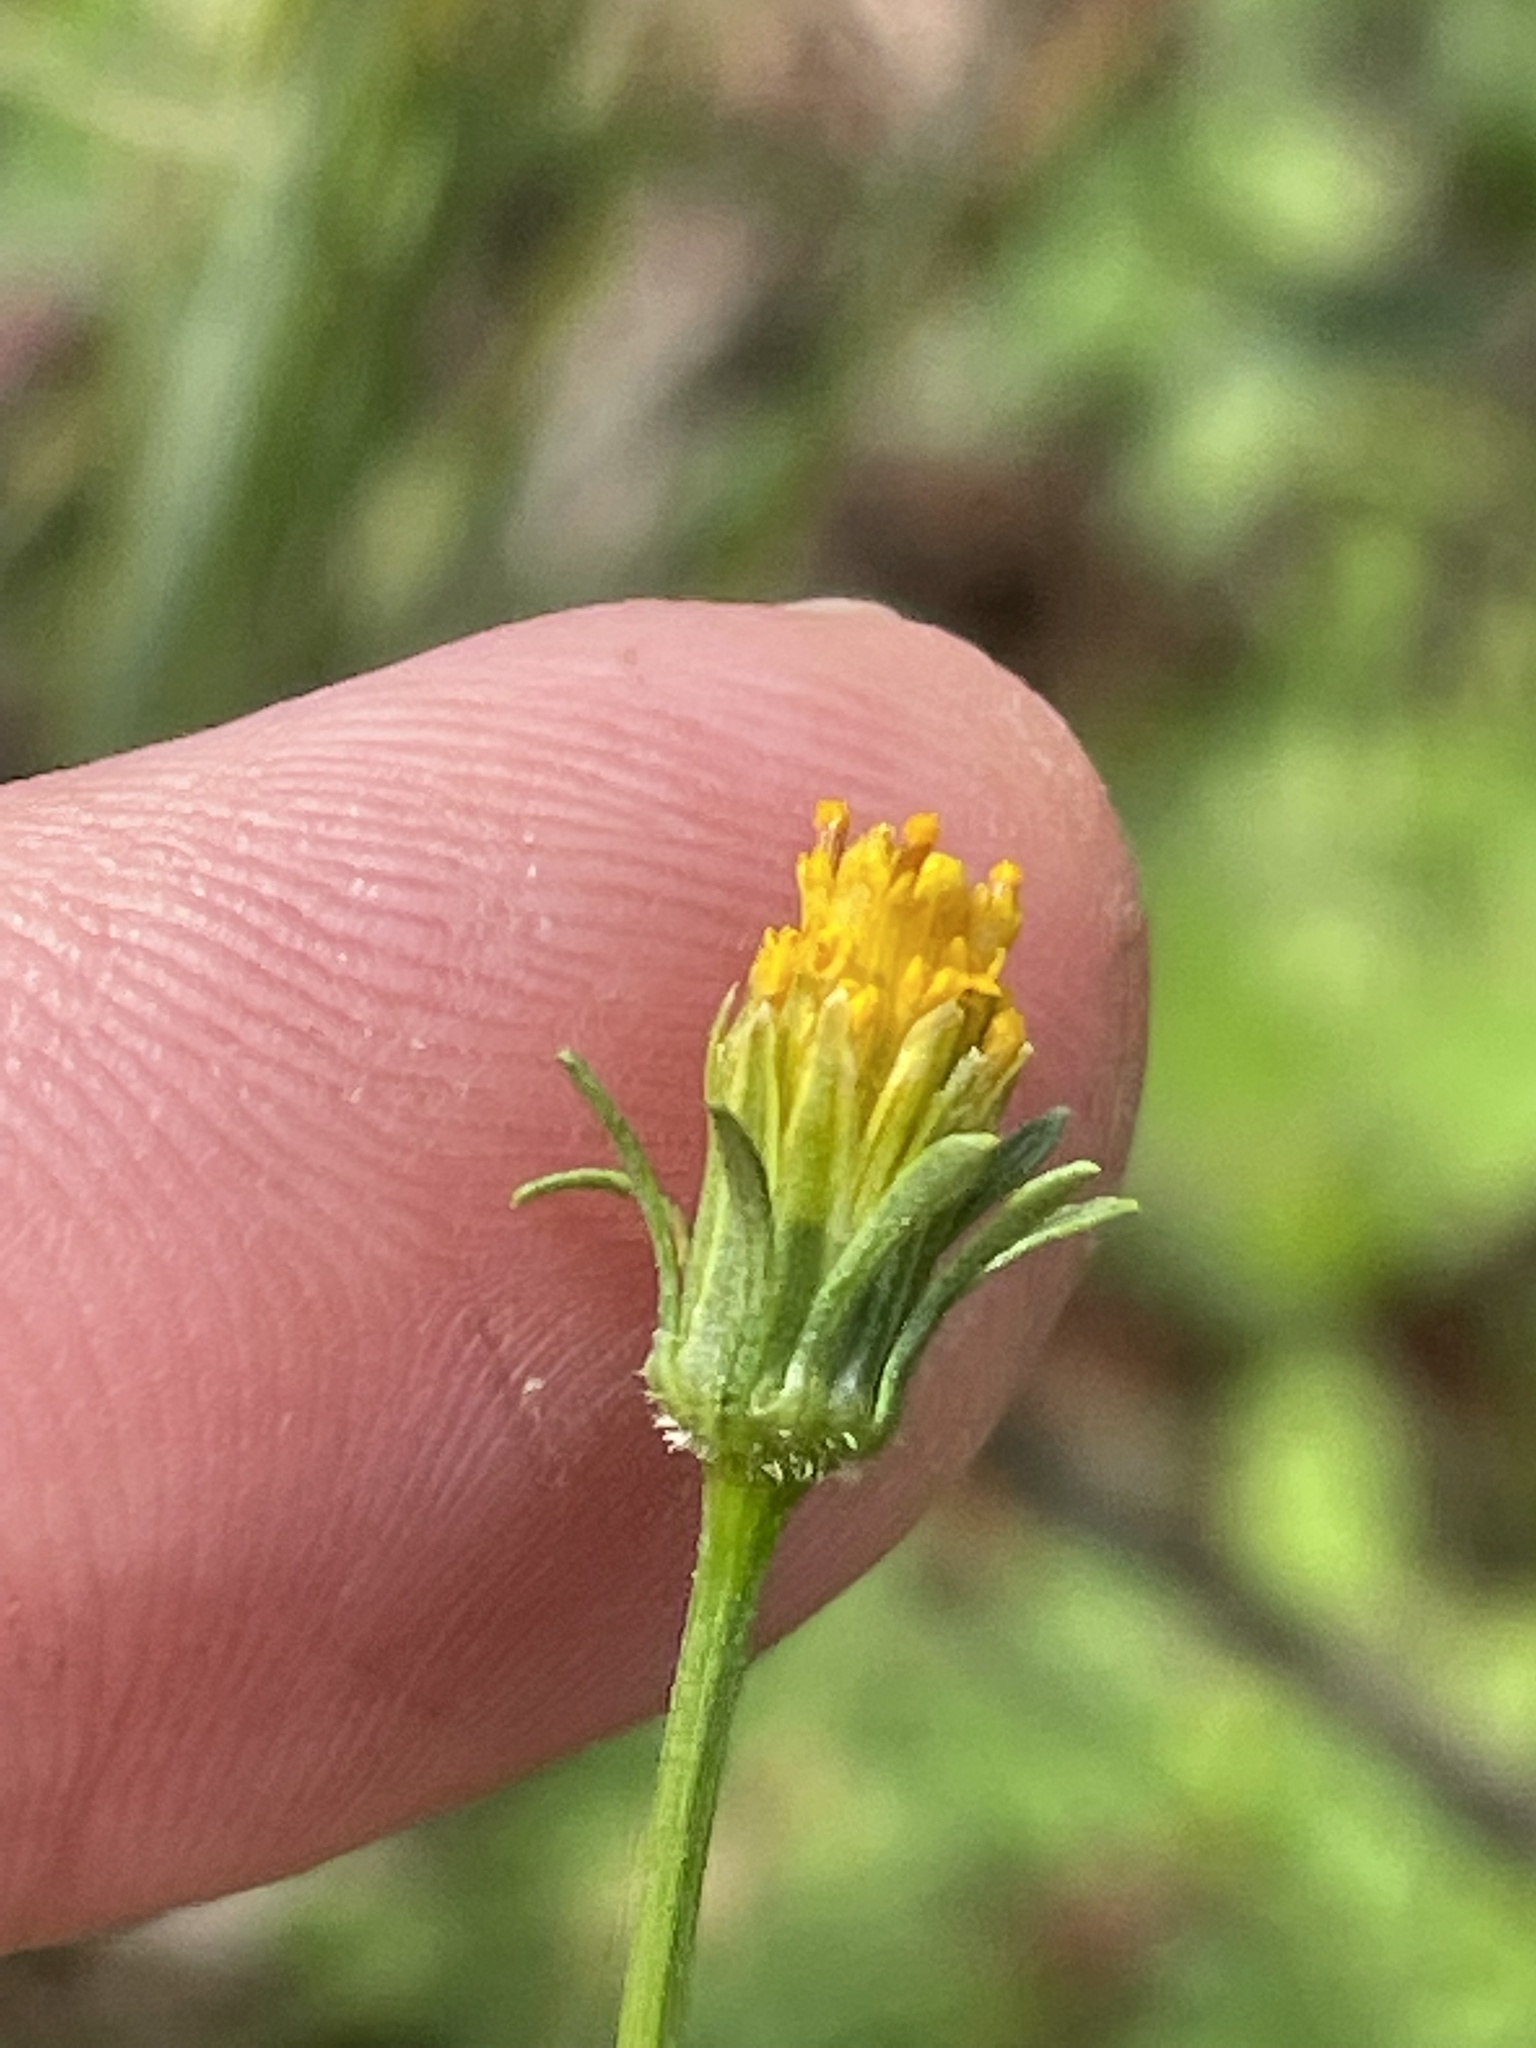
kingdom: Plantae
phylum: Tracheophyta
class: Magnoliopsida
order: Asterales
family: Asteraceae
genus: Bidens
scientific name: Bidens bipinnata
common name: Spanish-needles
